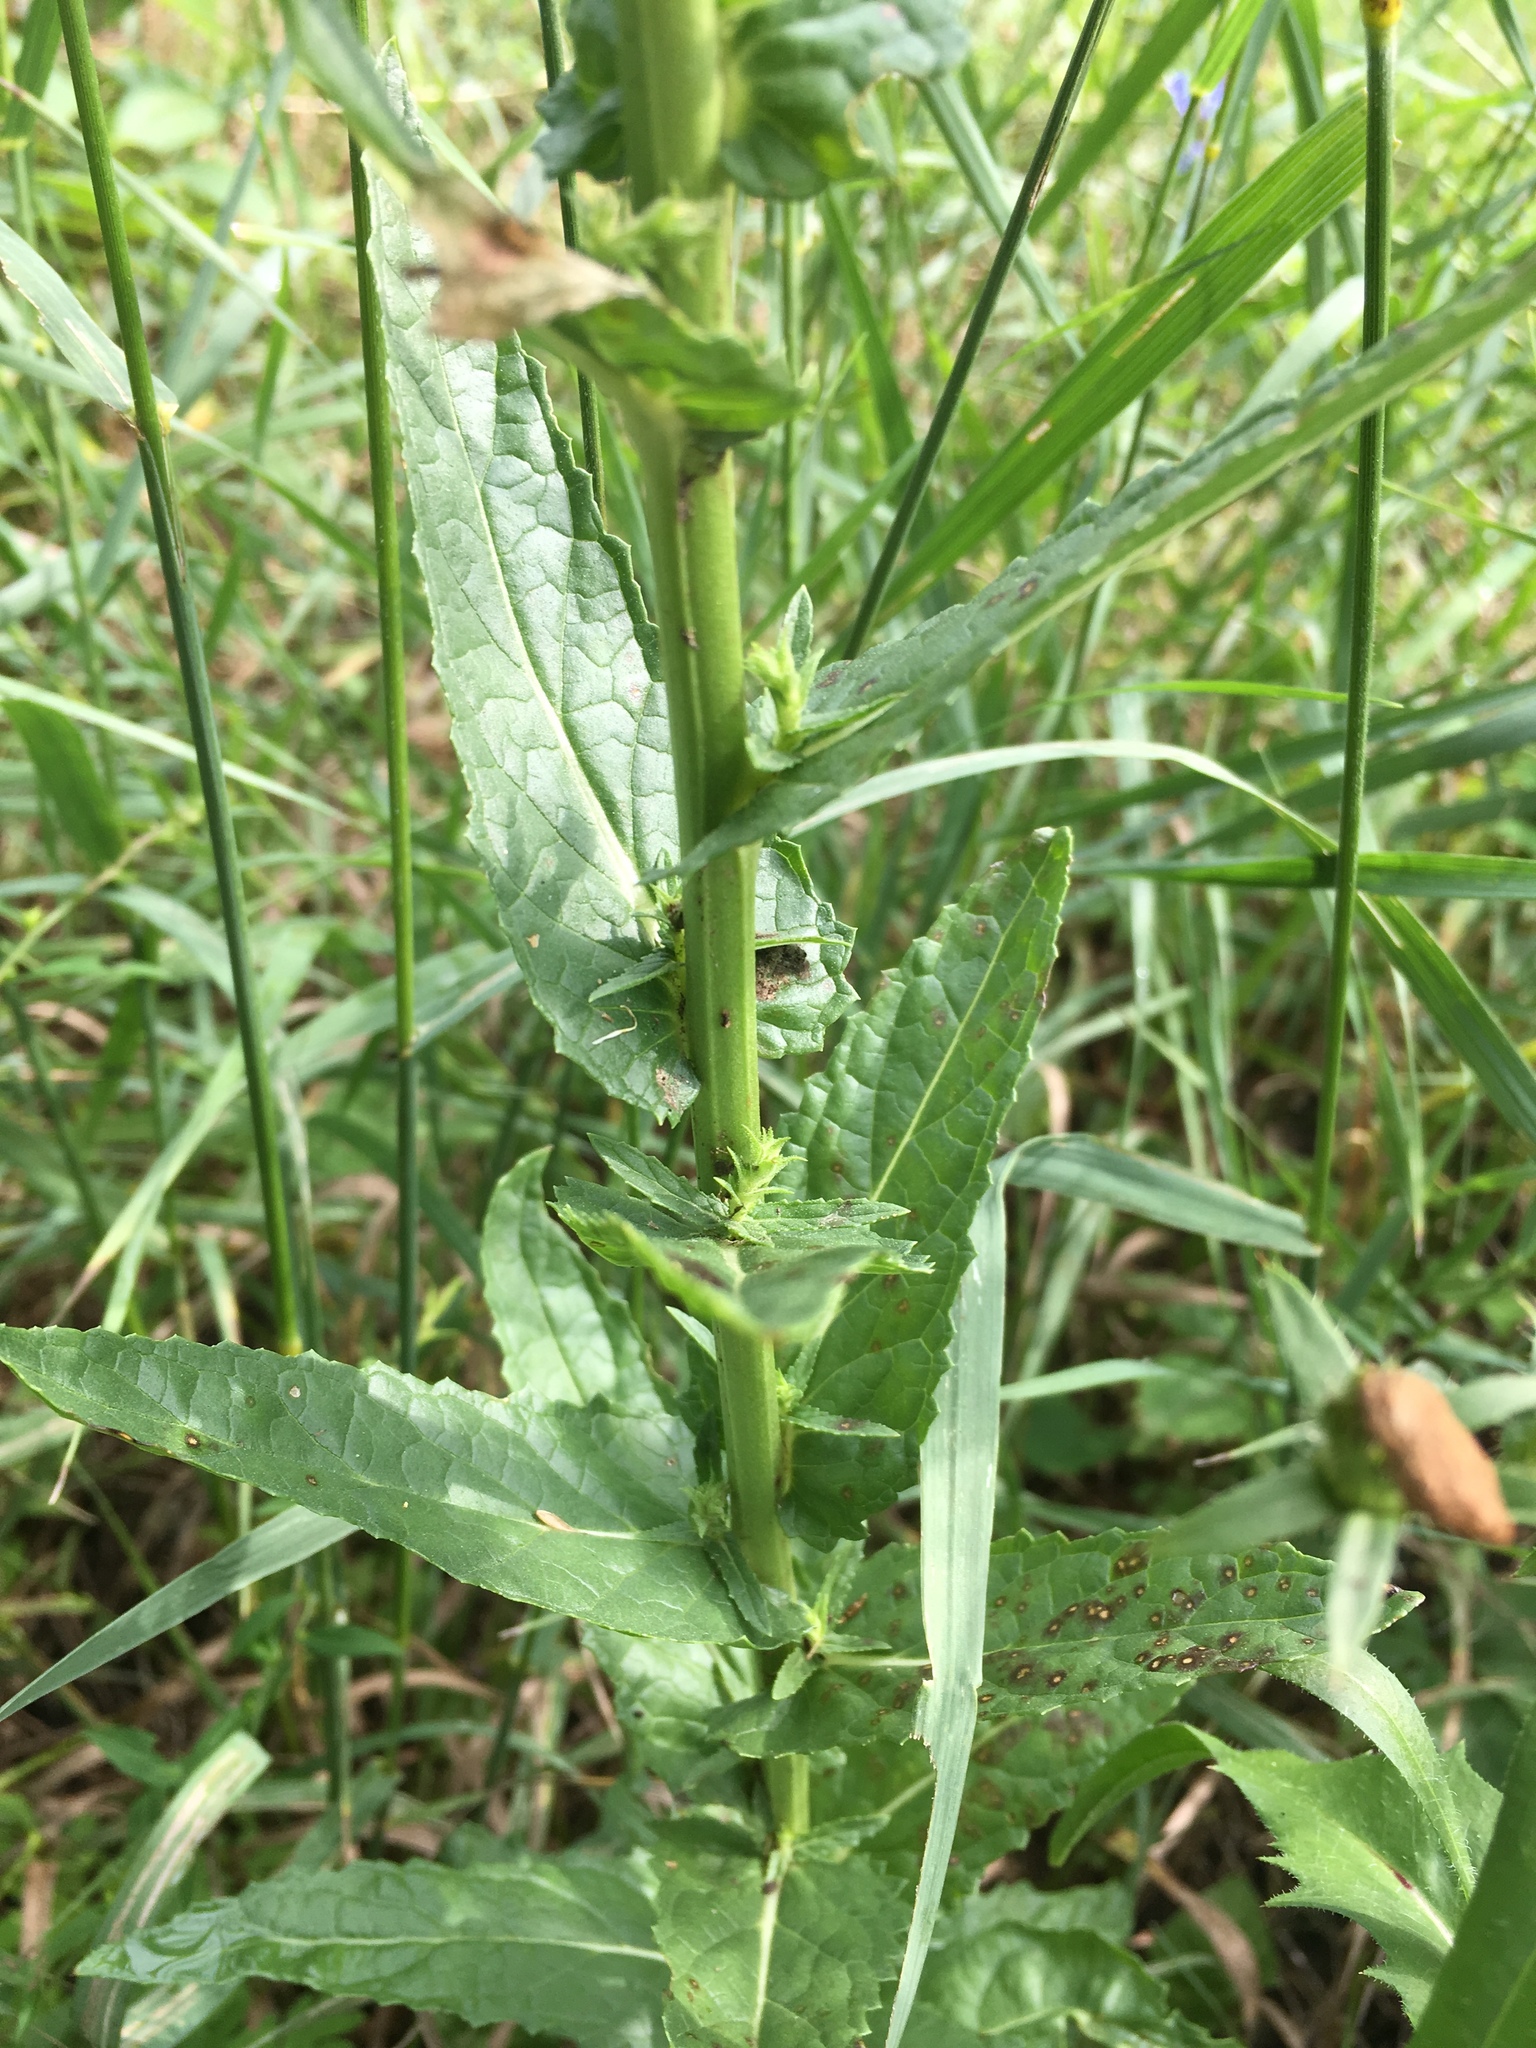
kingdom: Plantae
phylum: Tracheophyta
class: Magnoliopsida
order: Lamiales
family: Scrophulariaceae
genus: Verbascum
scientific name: Verbascum blattaria
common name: Moth mullein
